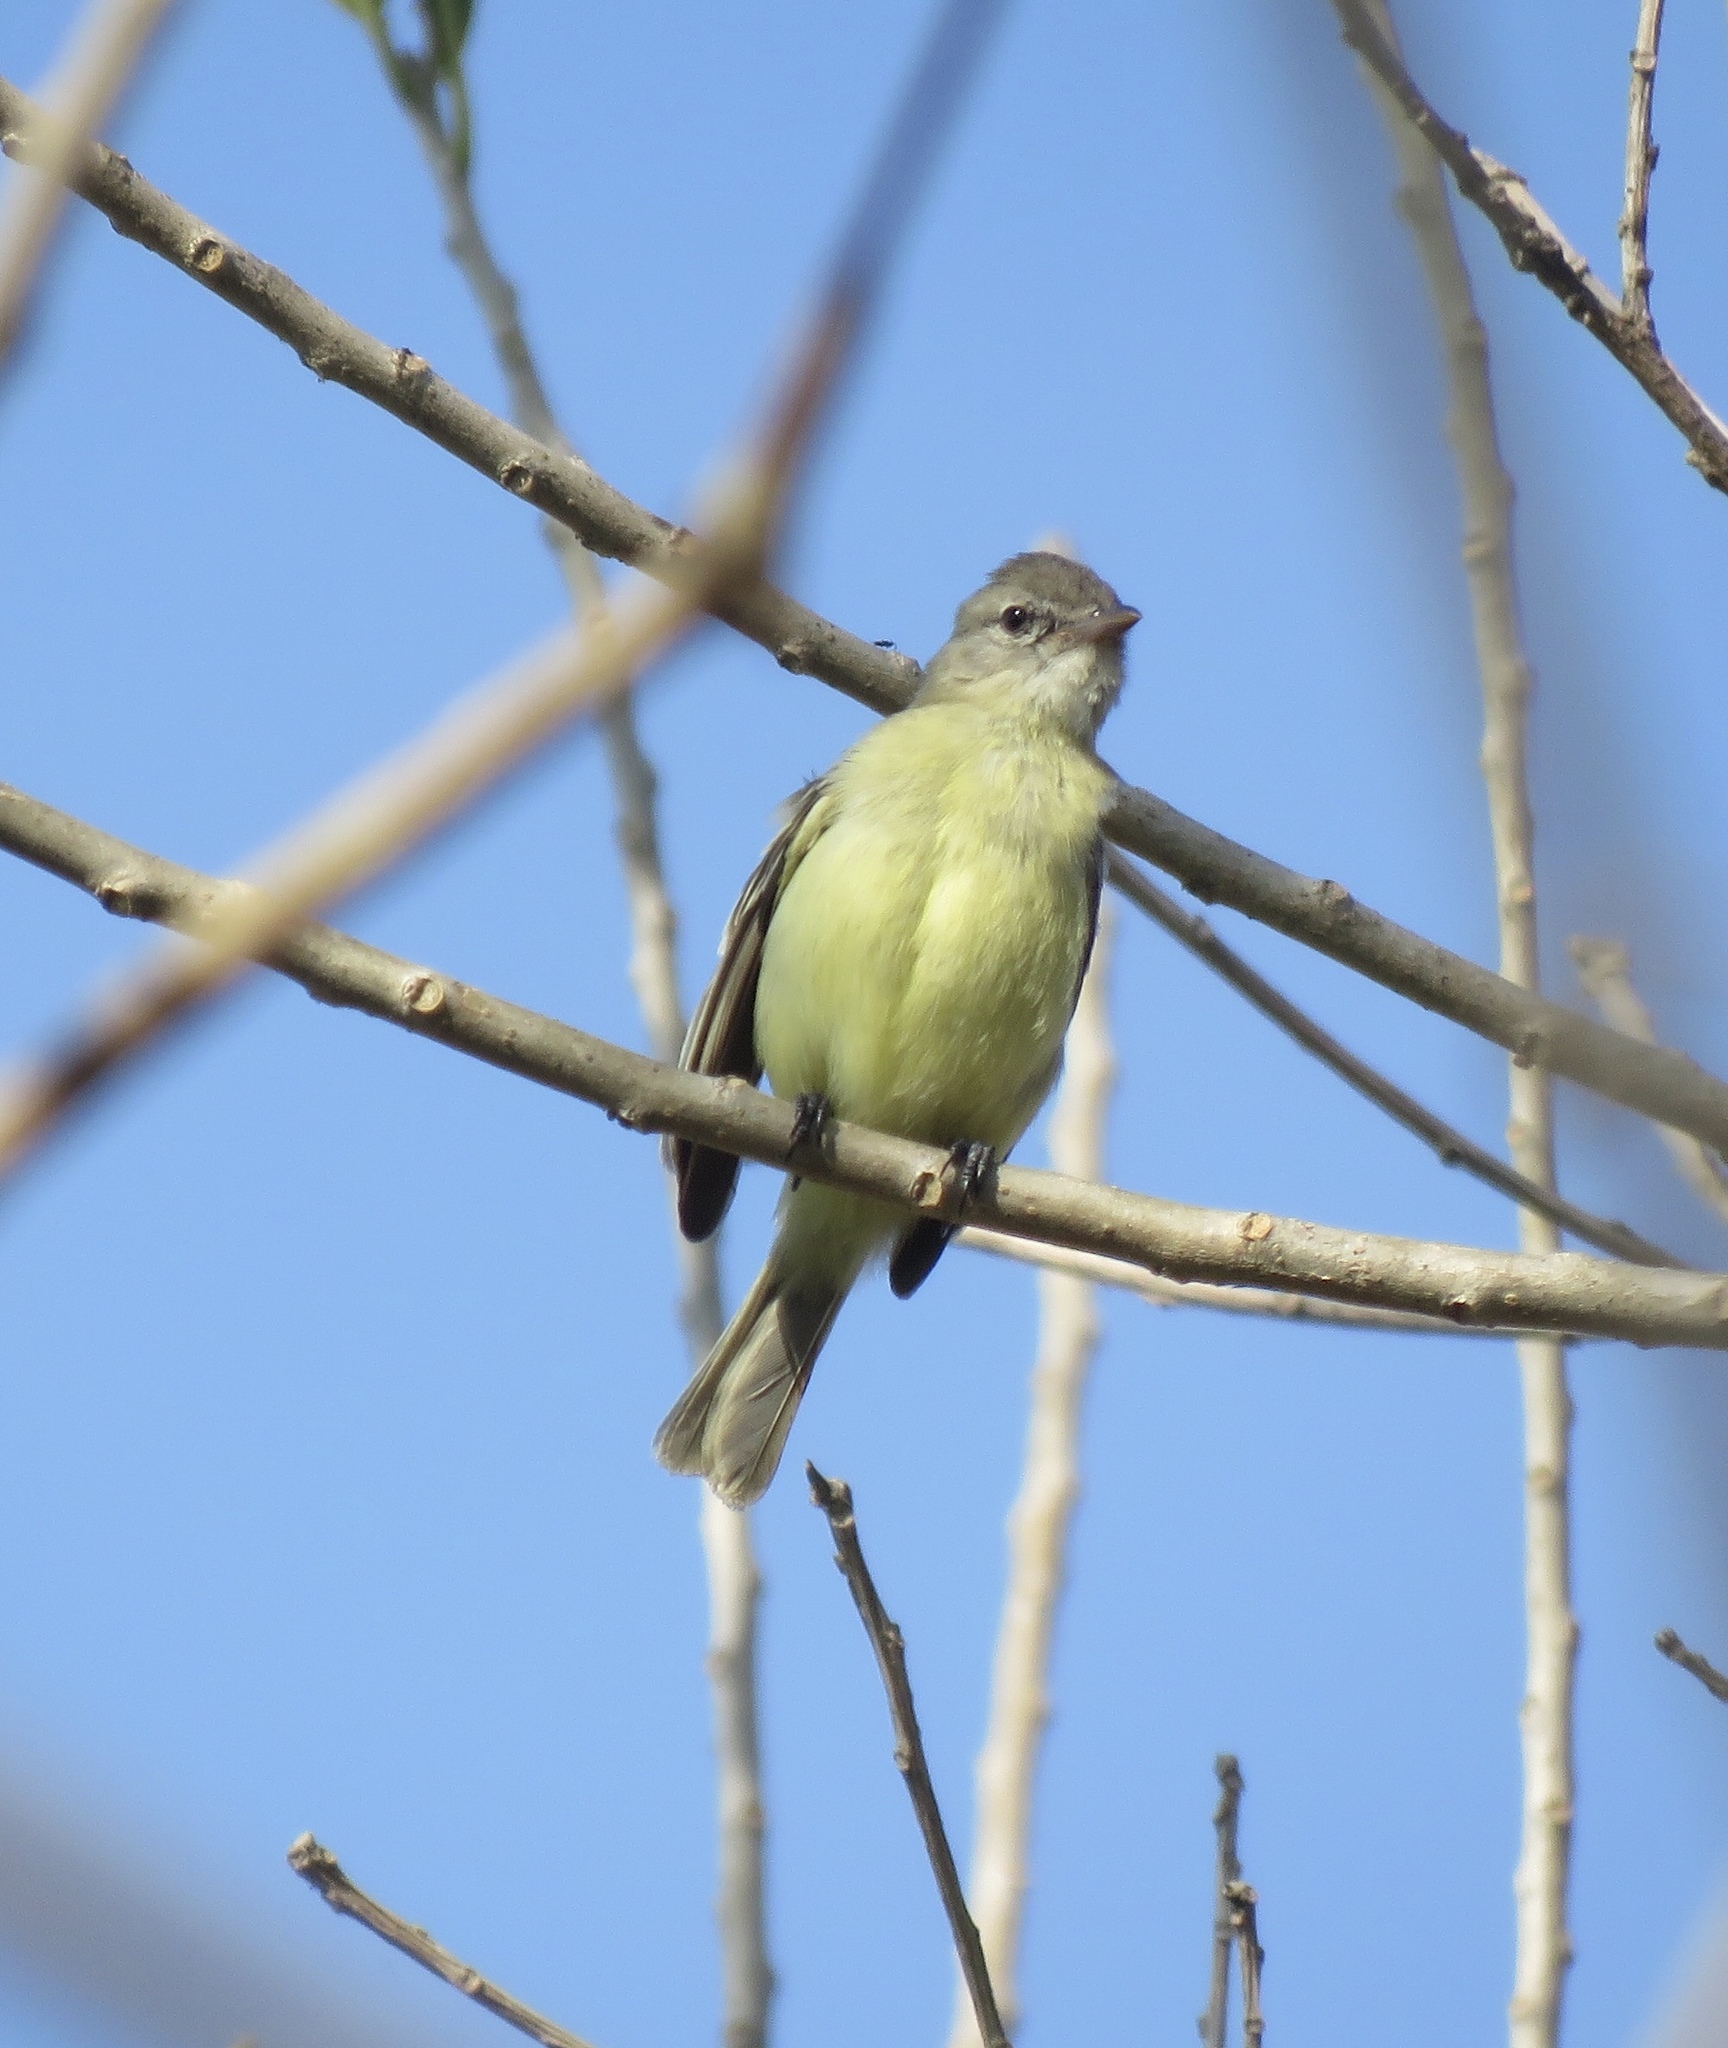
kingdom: Animalia
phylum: Chordata
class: Aves
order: Passeriformes
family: Tyrannidae
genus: Camptostoma
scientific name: Camptostoma obsoletum
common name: Southern beardless-tyrannulet
